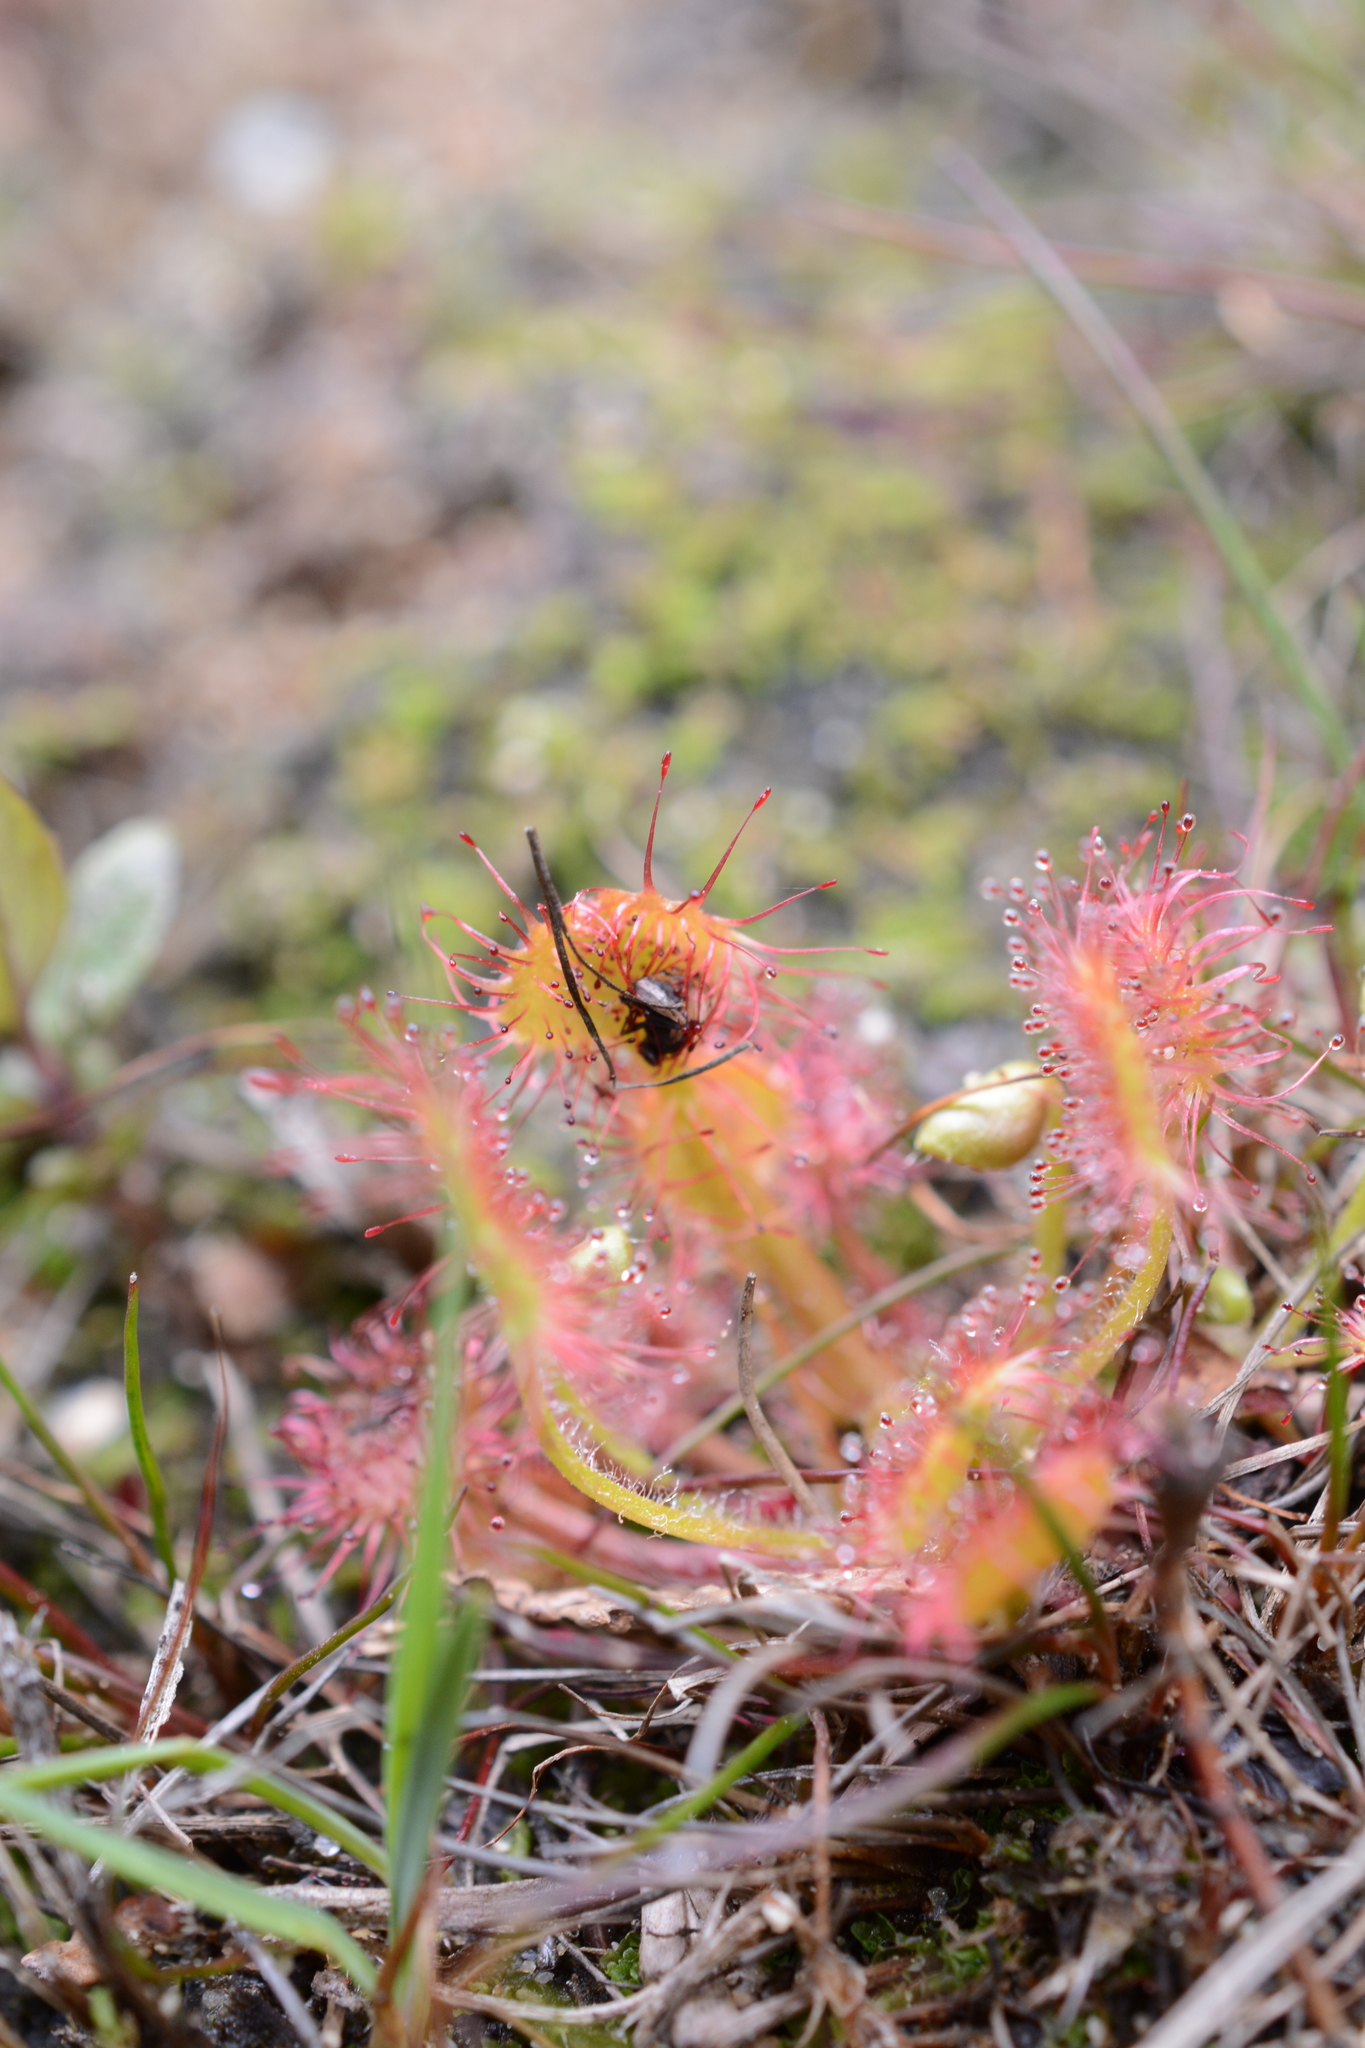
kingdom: Plantae
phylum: Tracheophyta
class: Magnoliopsida
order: Caryophyllales
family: Droseraceae
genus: Drosera
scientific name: Drosera rotundifolia
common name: Round-leaved sundew
